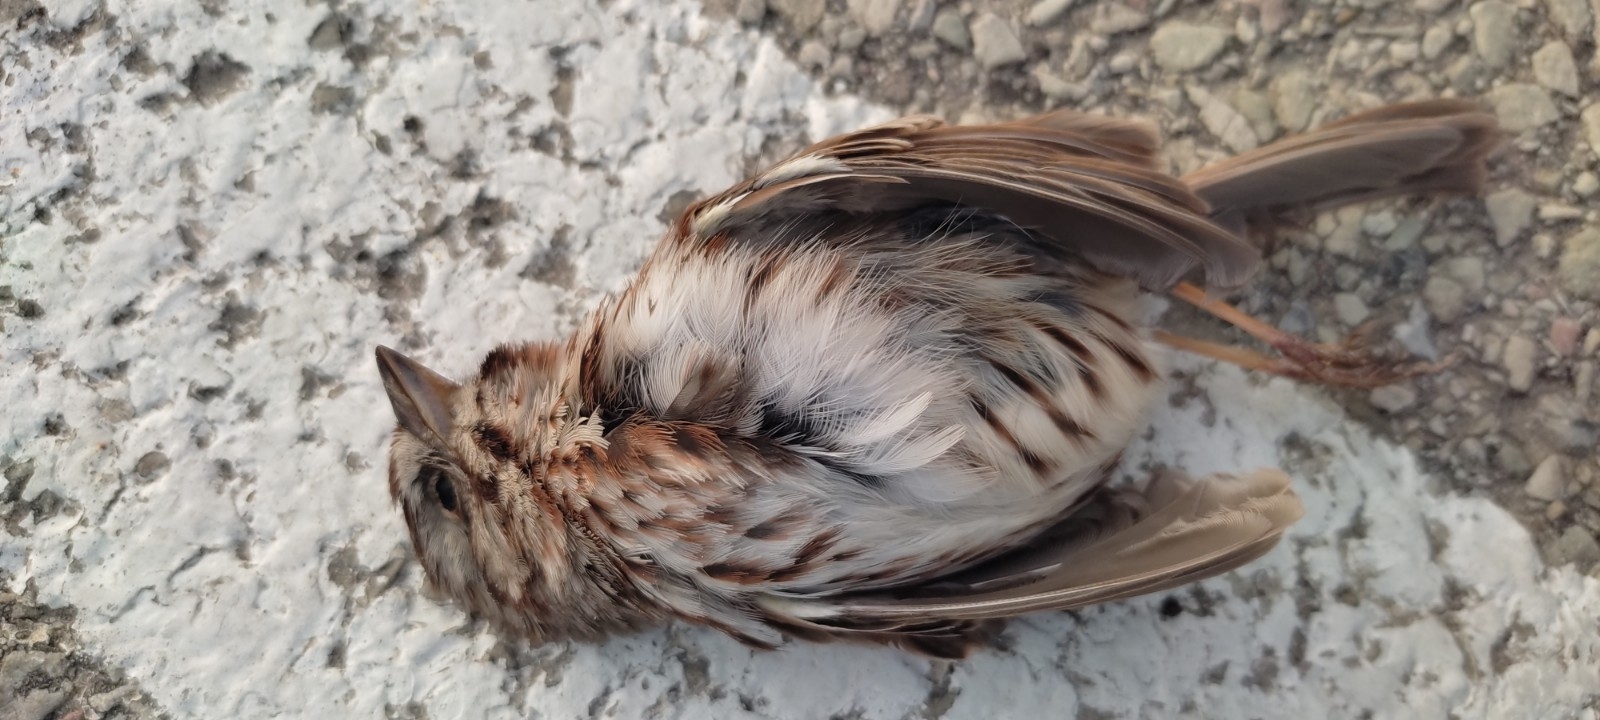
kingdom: Animalia
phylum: Chordata
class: Aves
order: Passeriformes
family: Passerellidae
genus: Melospiza
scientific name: Melospiza melodia
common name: Song sparrow
